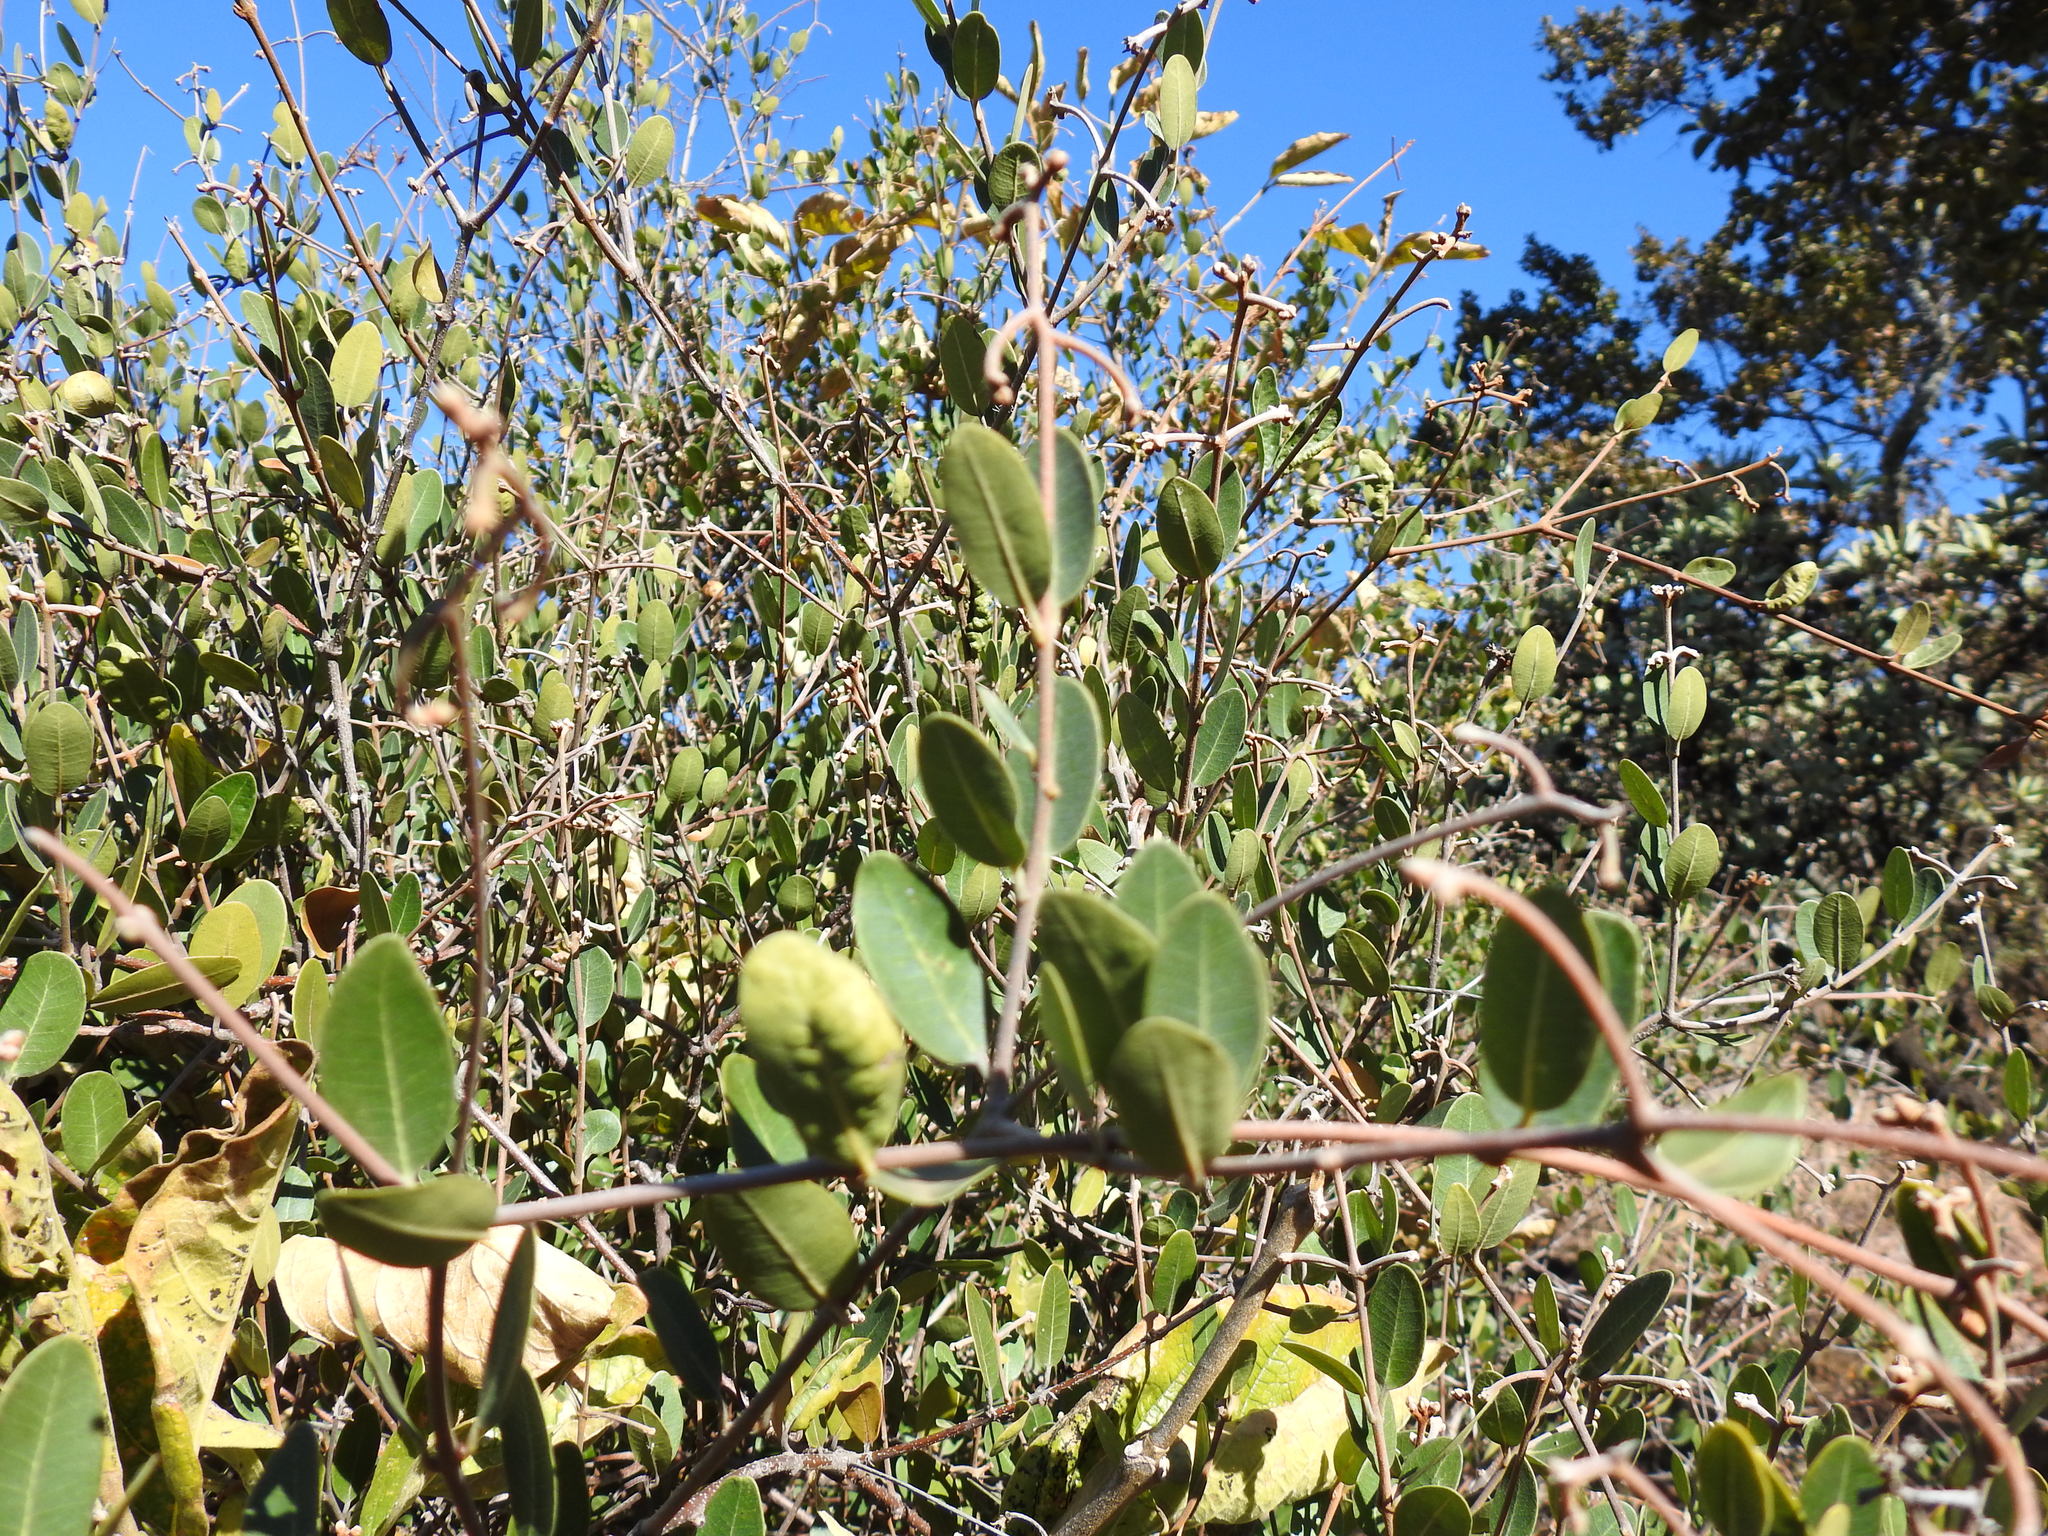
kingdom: Plantae
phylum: Tracheophyta
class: Magnoliopsida
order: Gentianales
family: Apocynaceae
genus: Ancylobothrys
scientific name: Ancylobothrys capensis
